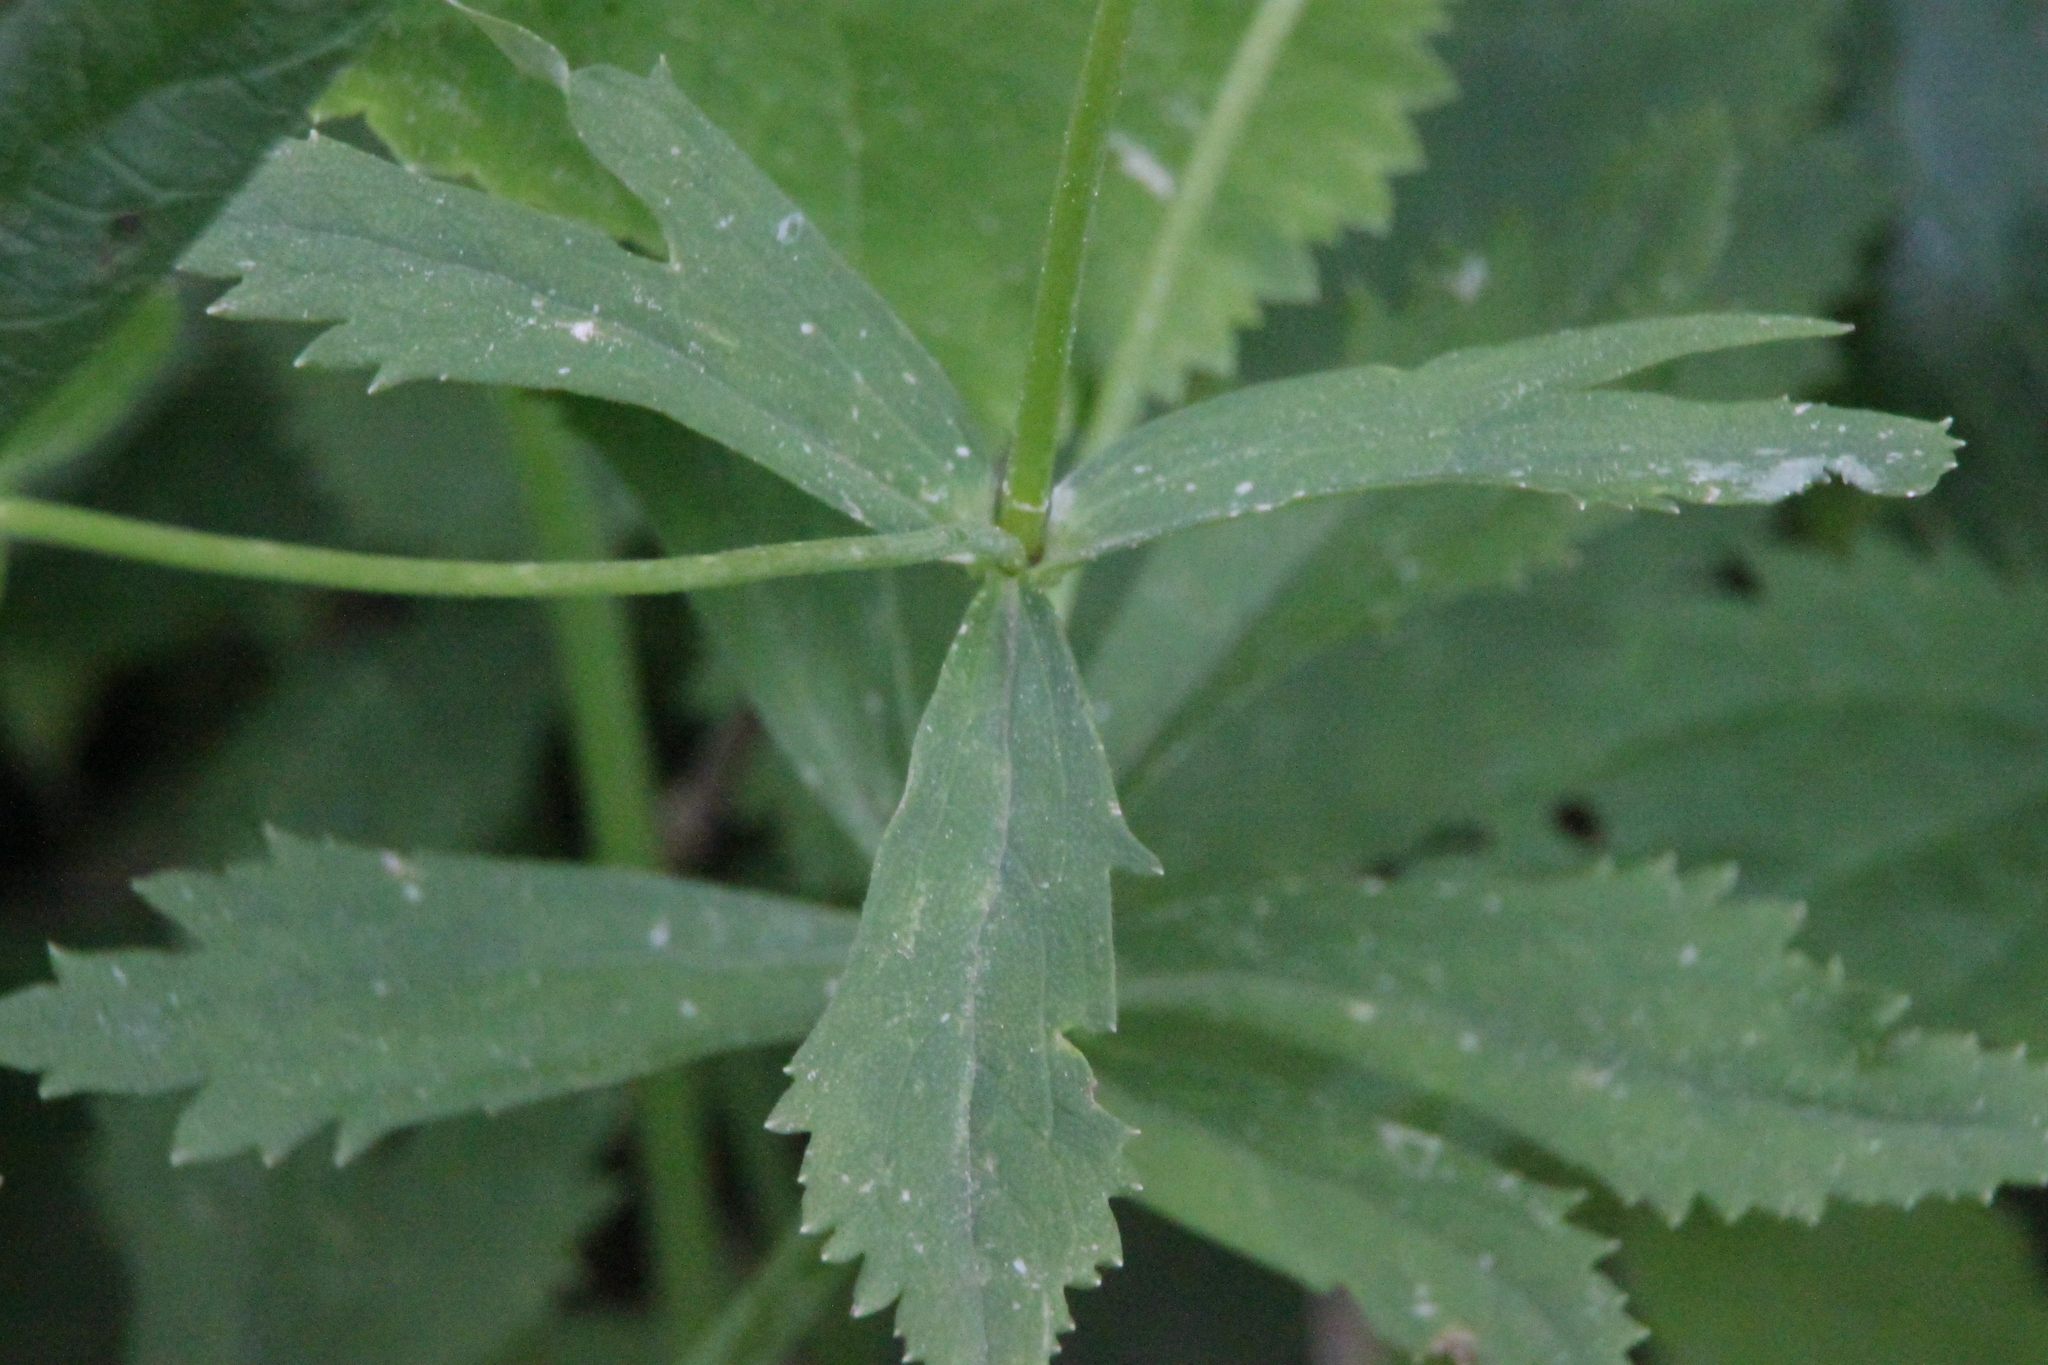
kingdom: Plantae
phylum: Tracheophyta
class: Magnoliopsida
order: Ranunculales
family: Ranunculaceae
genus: Ranunculus
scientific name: Ranunculus cassubicus
